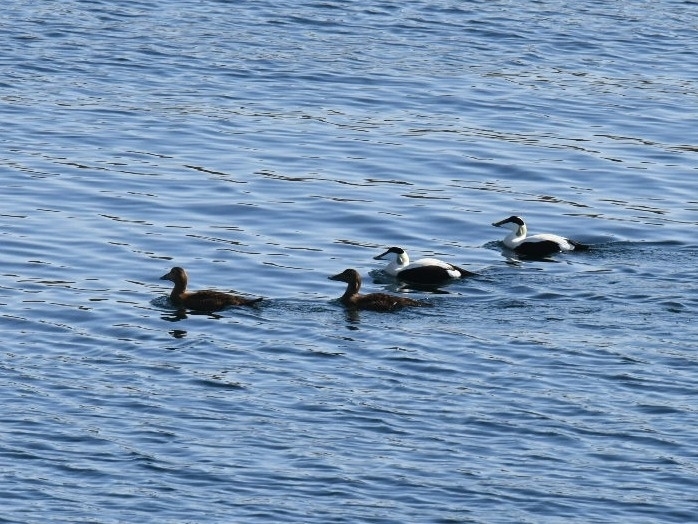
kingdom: Animalia
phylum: Chordata
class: Aves
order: Anseriformes
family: Anatidae
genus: Somateria
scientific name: Somateria mollissima
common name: Common eider
